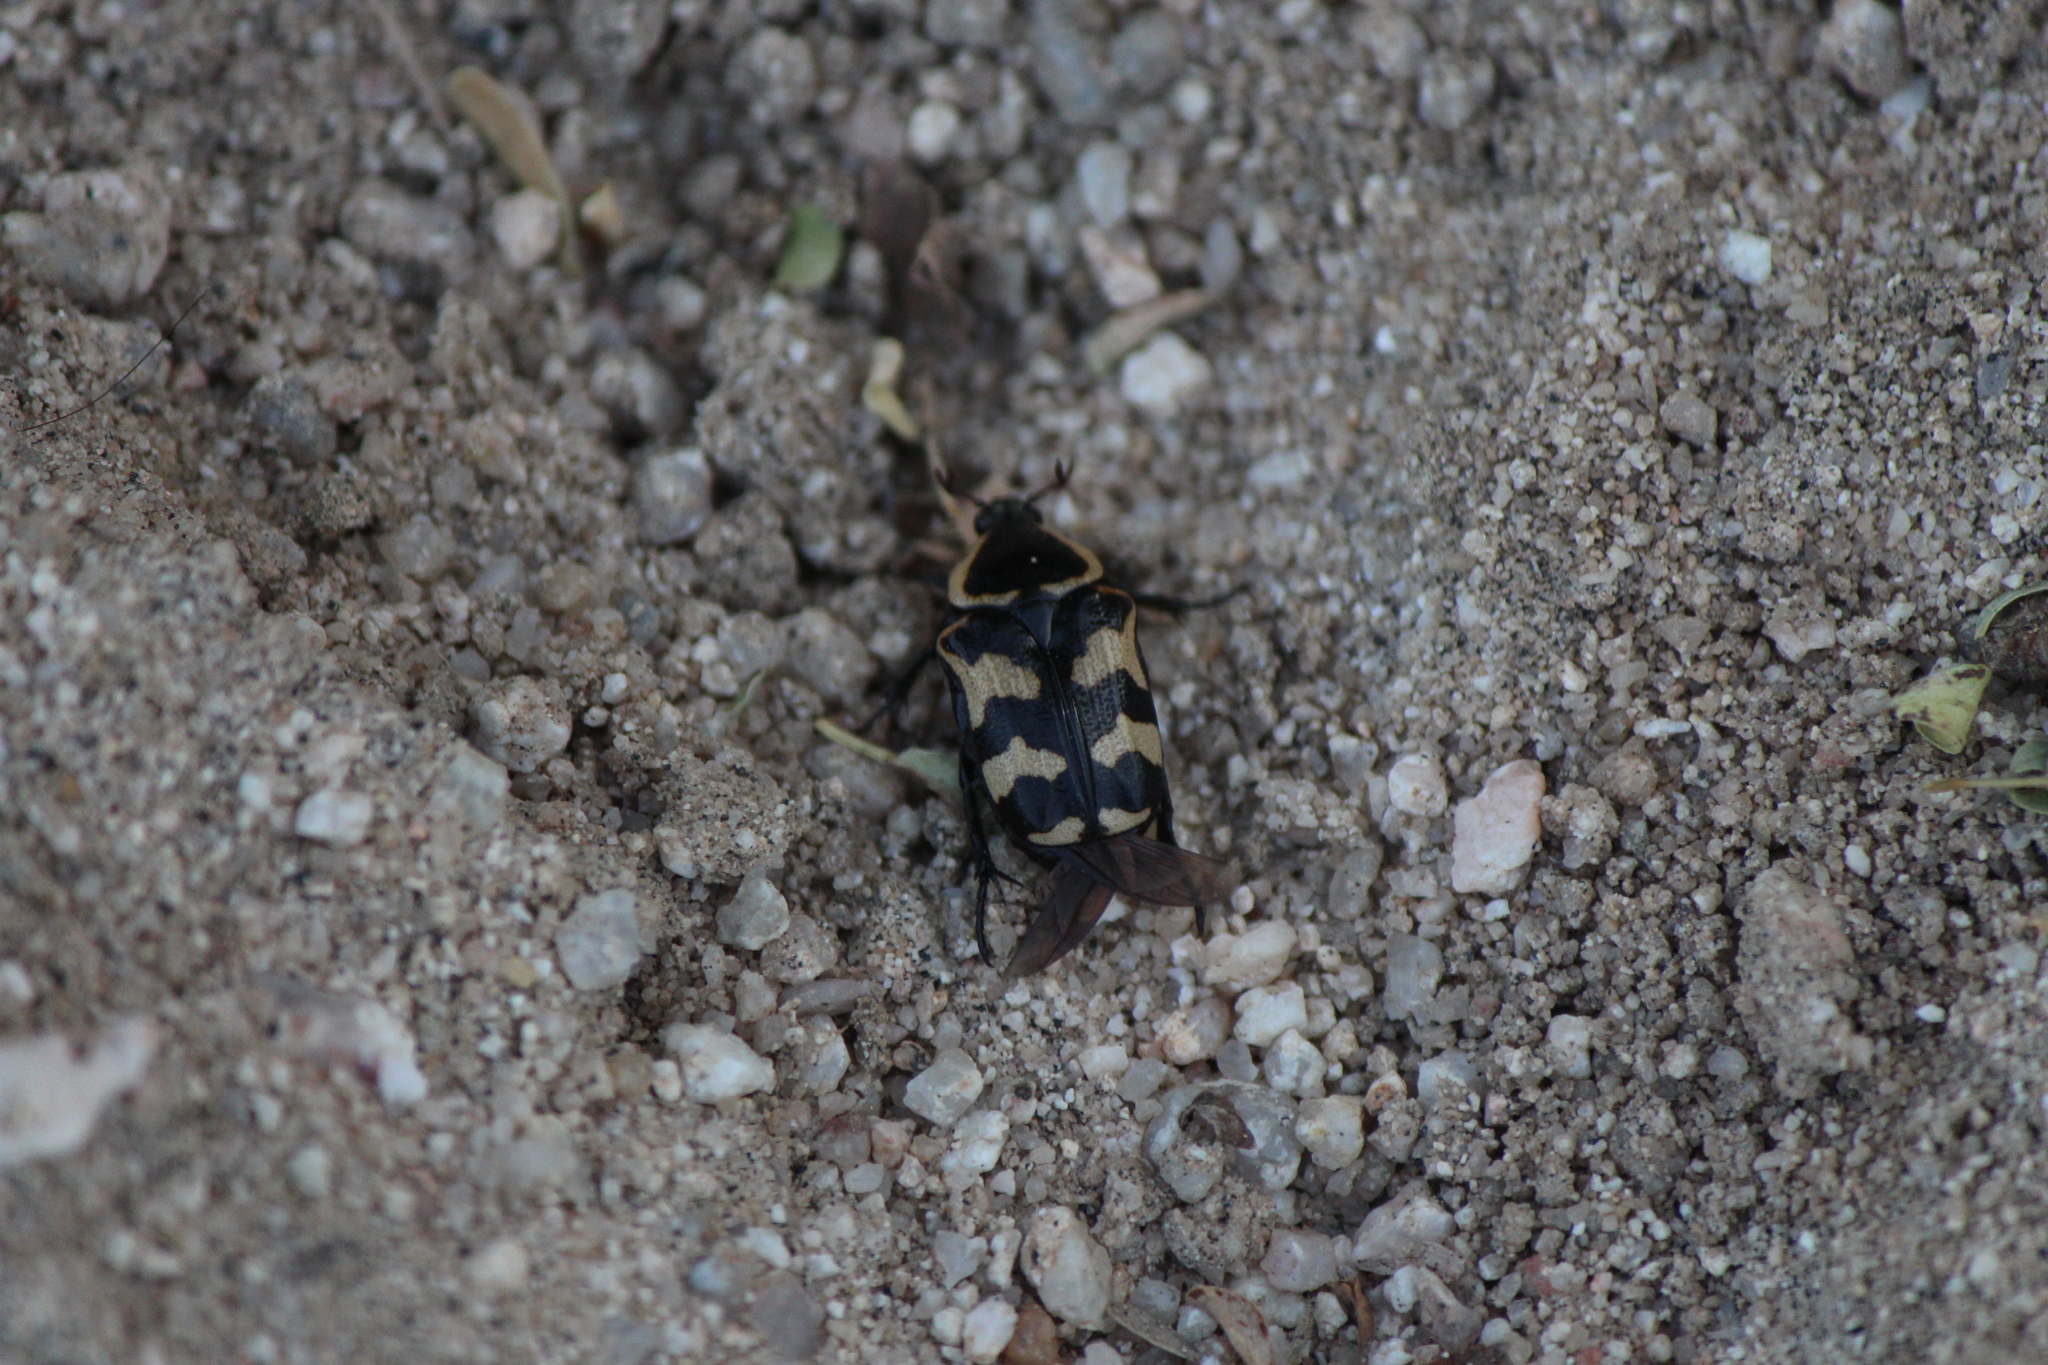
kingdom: Animalia
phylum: Arthropoda
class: Insecta
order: Coleoptera
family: Scarabaeidae
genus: Euphoria
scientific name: Euphoria fascifera
